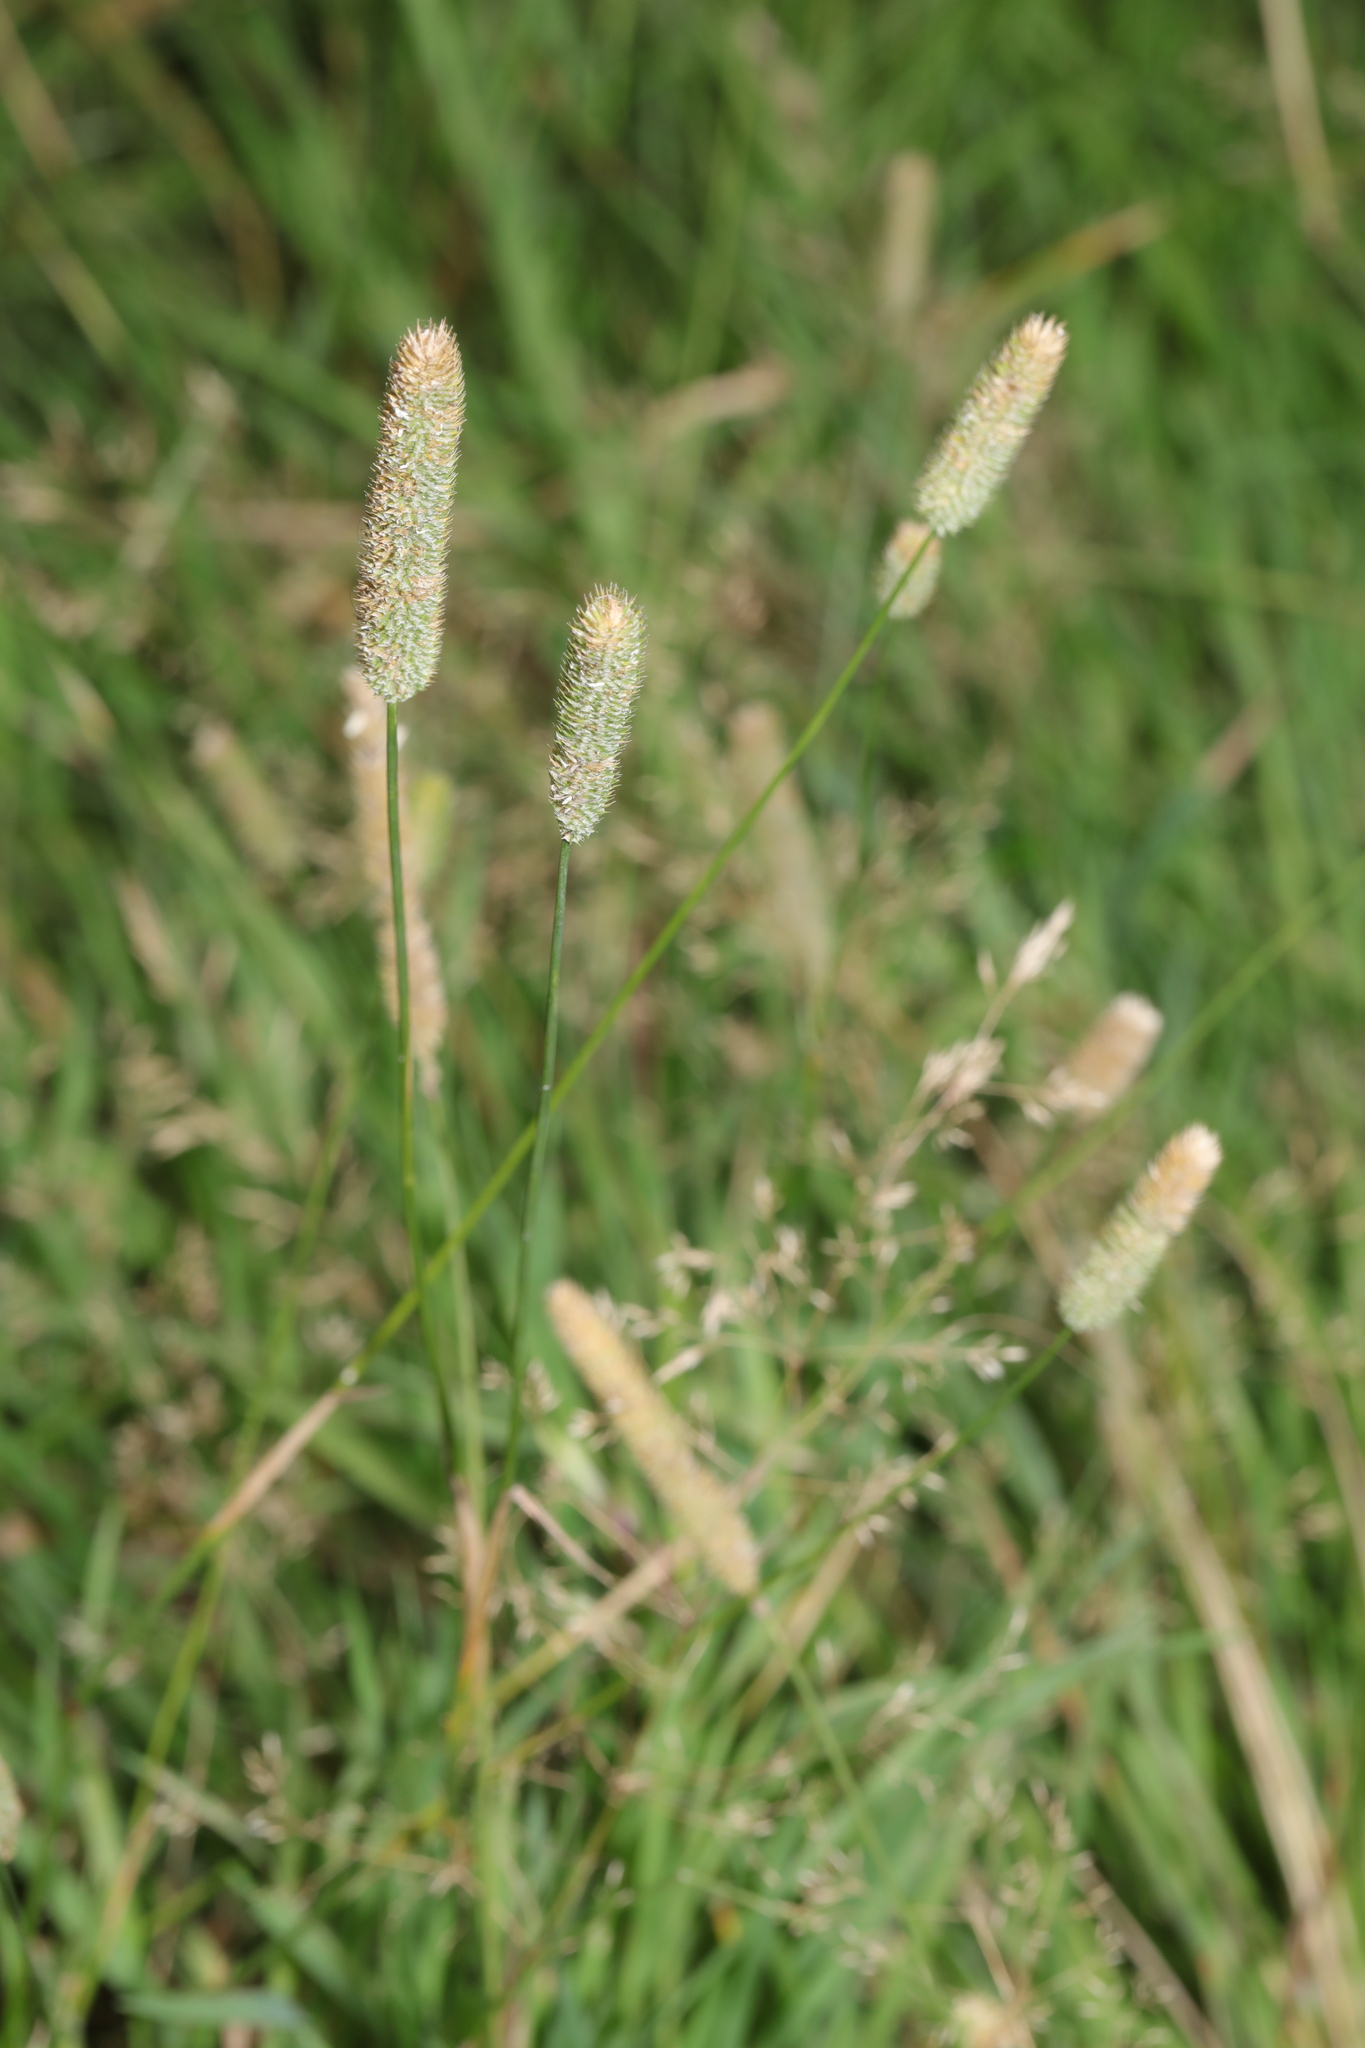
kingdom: Plantae
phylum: Tracheophyta
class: Liliopsida
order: Poales
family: Poaceae
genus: Phleum
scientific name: Phleum pratense
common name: Timothy grass
